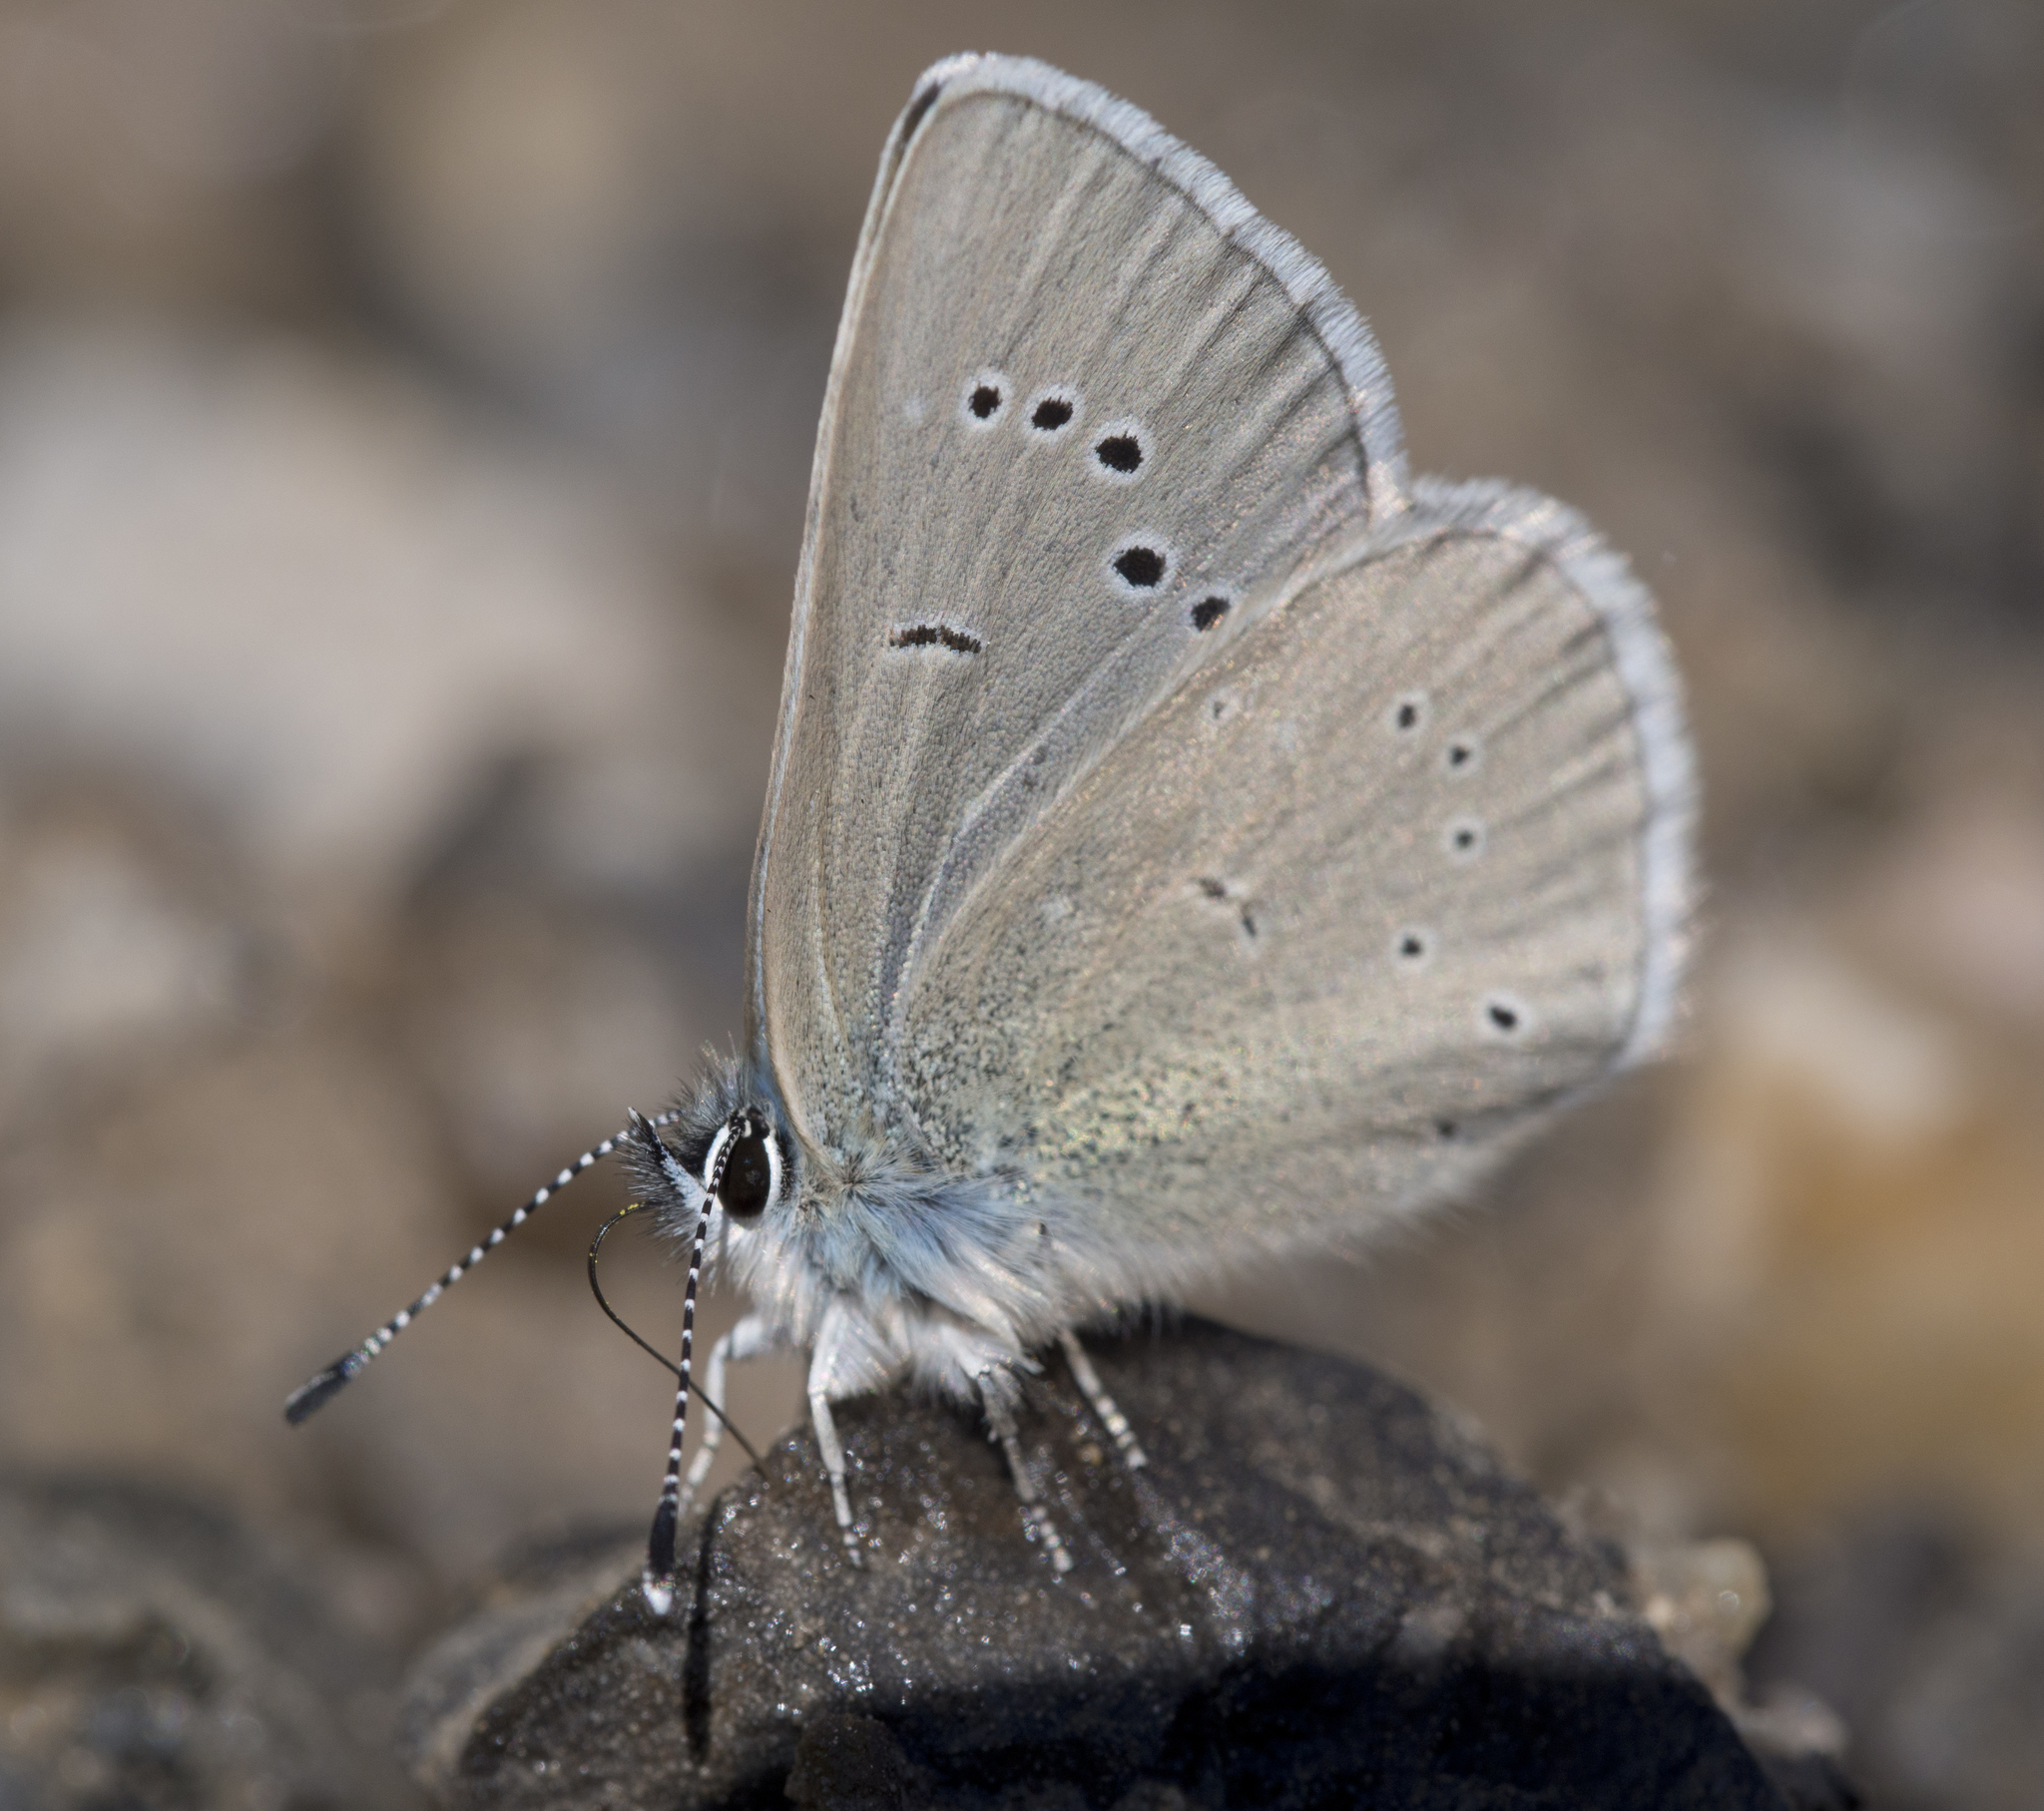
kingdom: Animalia
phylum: Arthropoda
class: Insecta
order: Lepidoptera
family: Lycaenidae
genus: Glaucopsyche
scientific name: Glaucopsyche lygdamus
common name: Silvery blue
